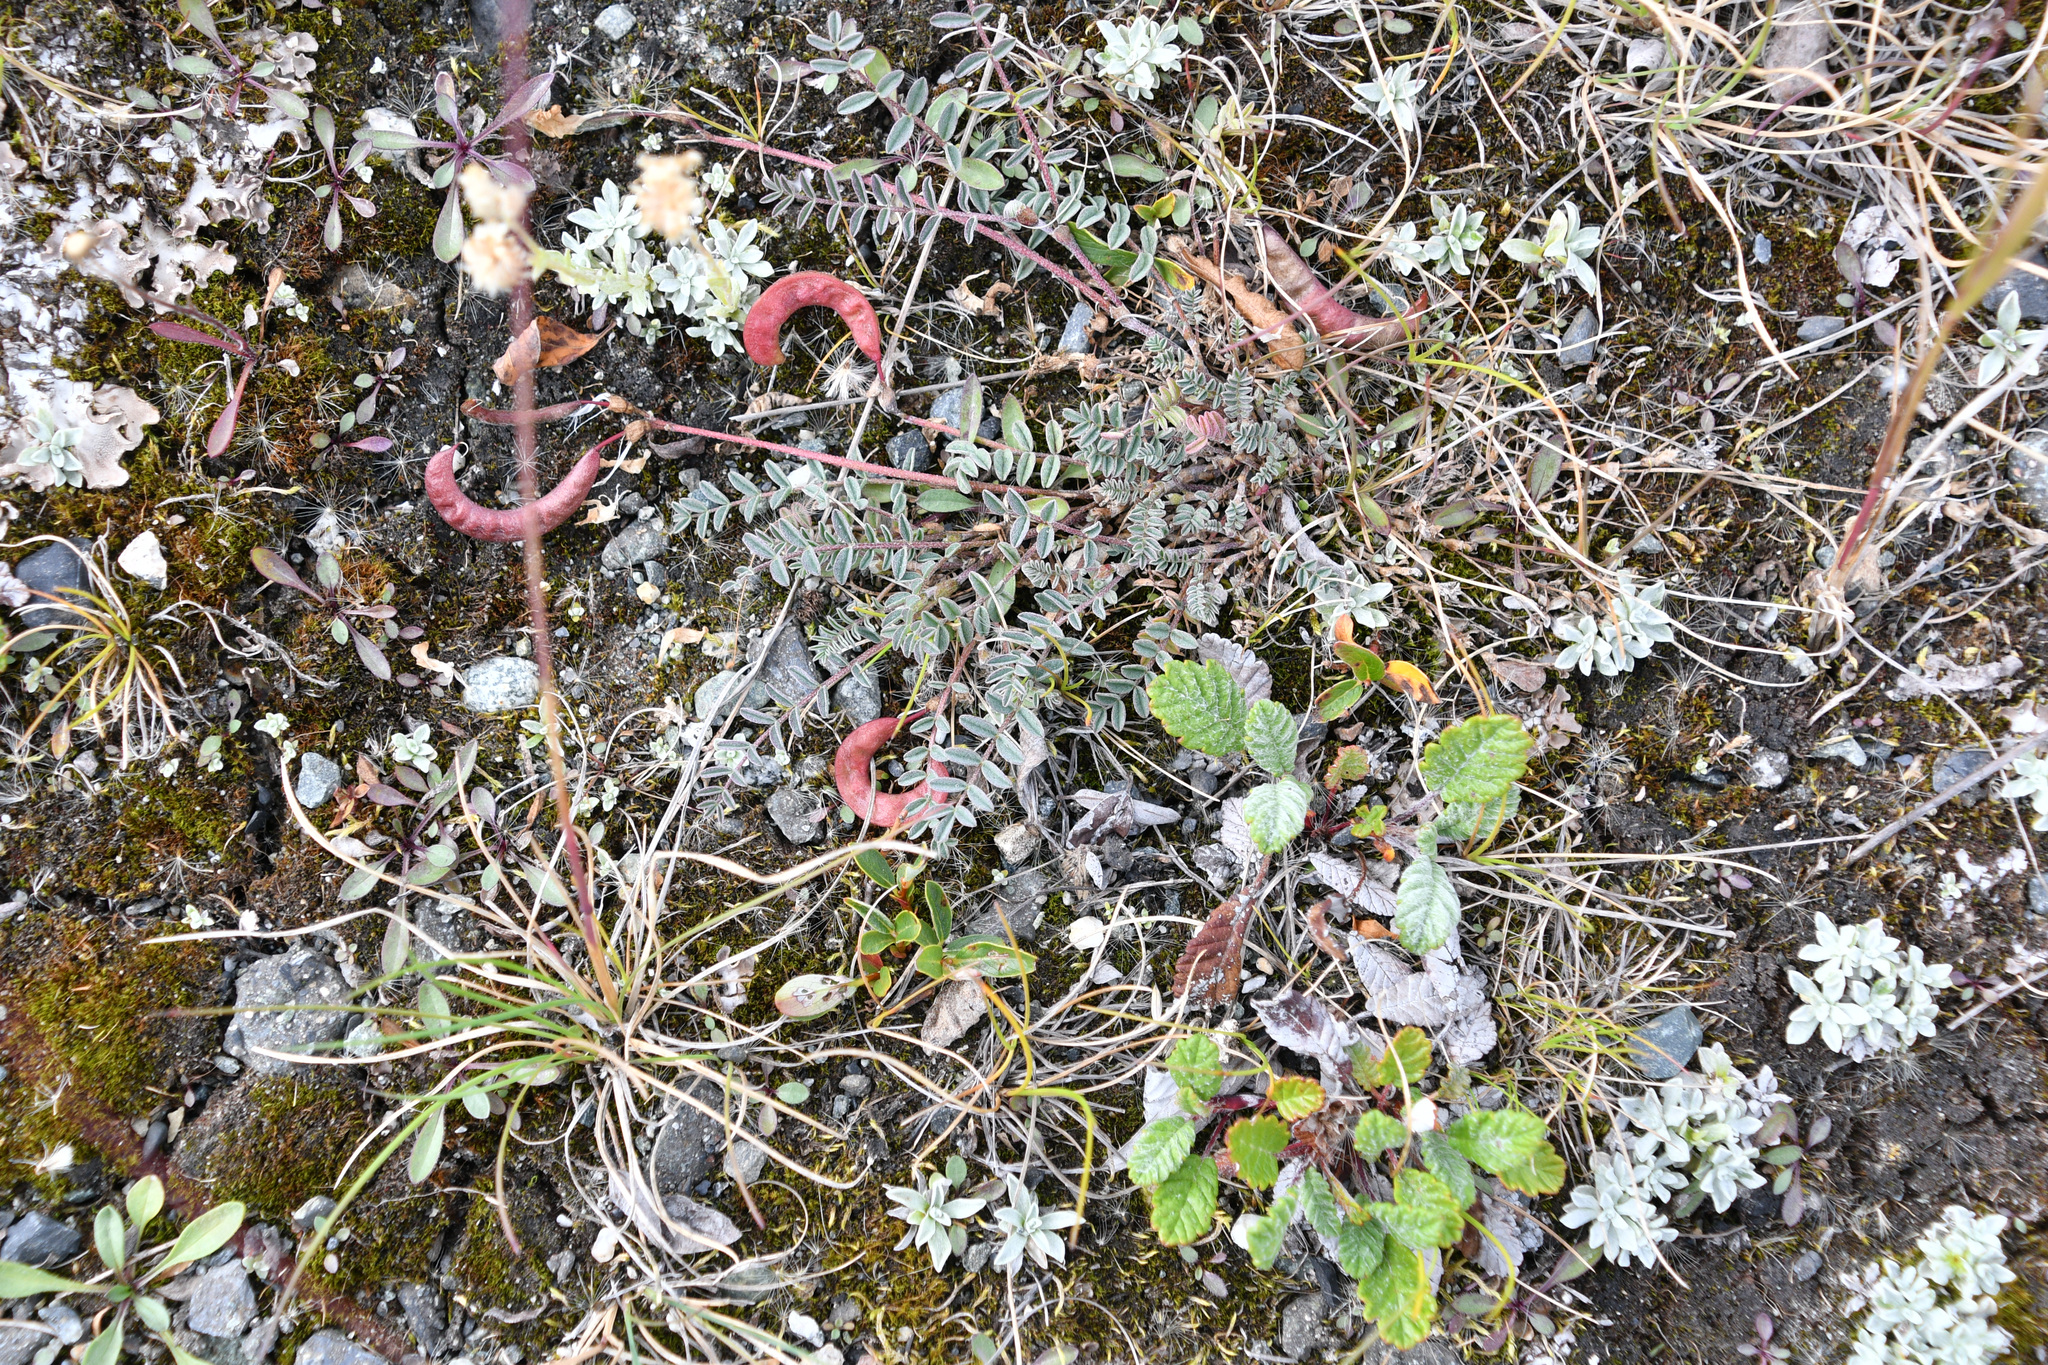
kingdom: Plantae
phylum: Tracheophyta
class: Magnoliopsida
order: Fabales
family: Fabaceae
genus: Astragalus
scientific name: Astragalus nutzotinensis
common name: Nutzotin milk-vetch
